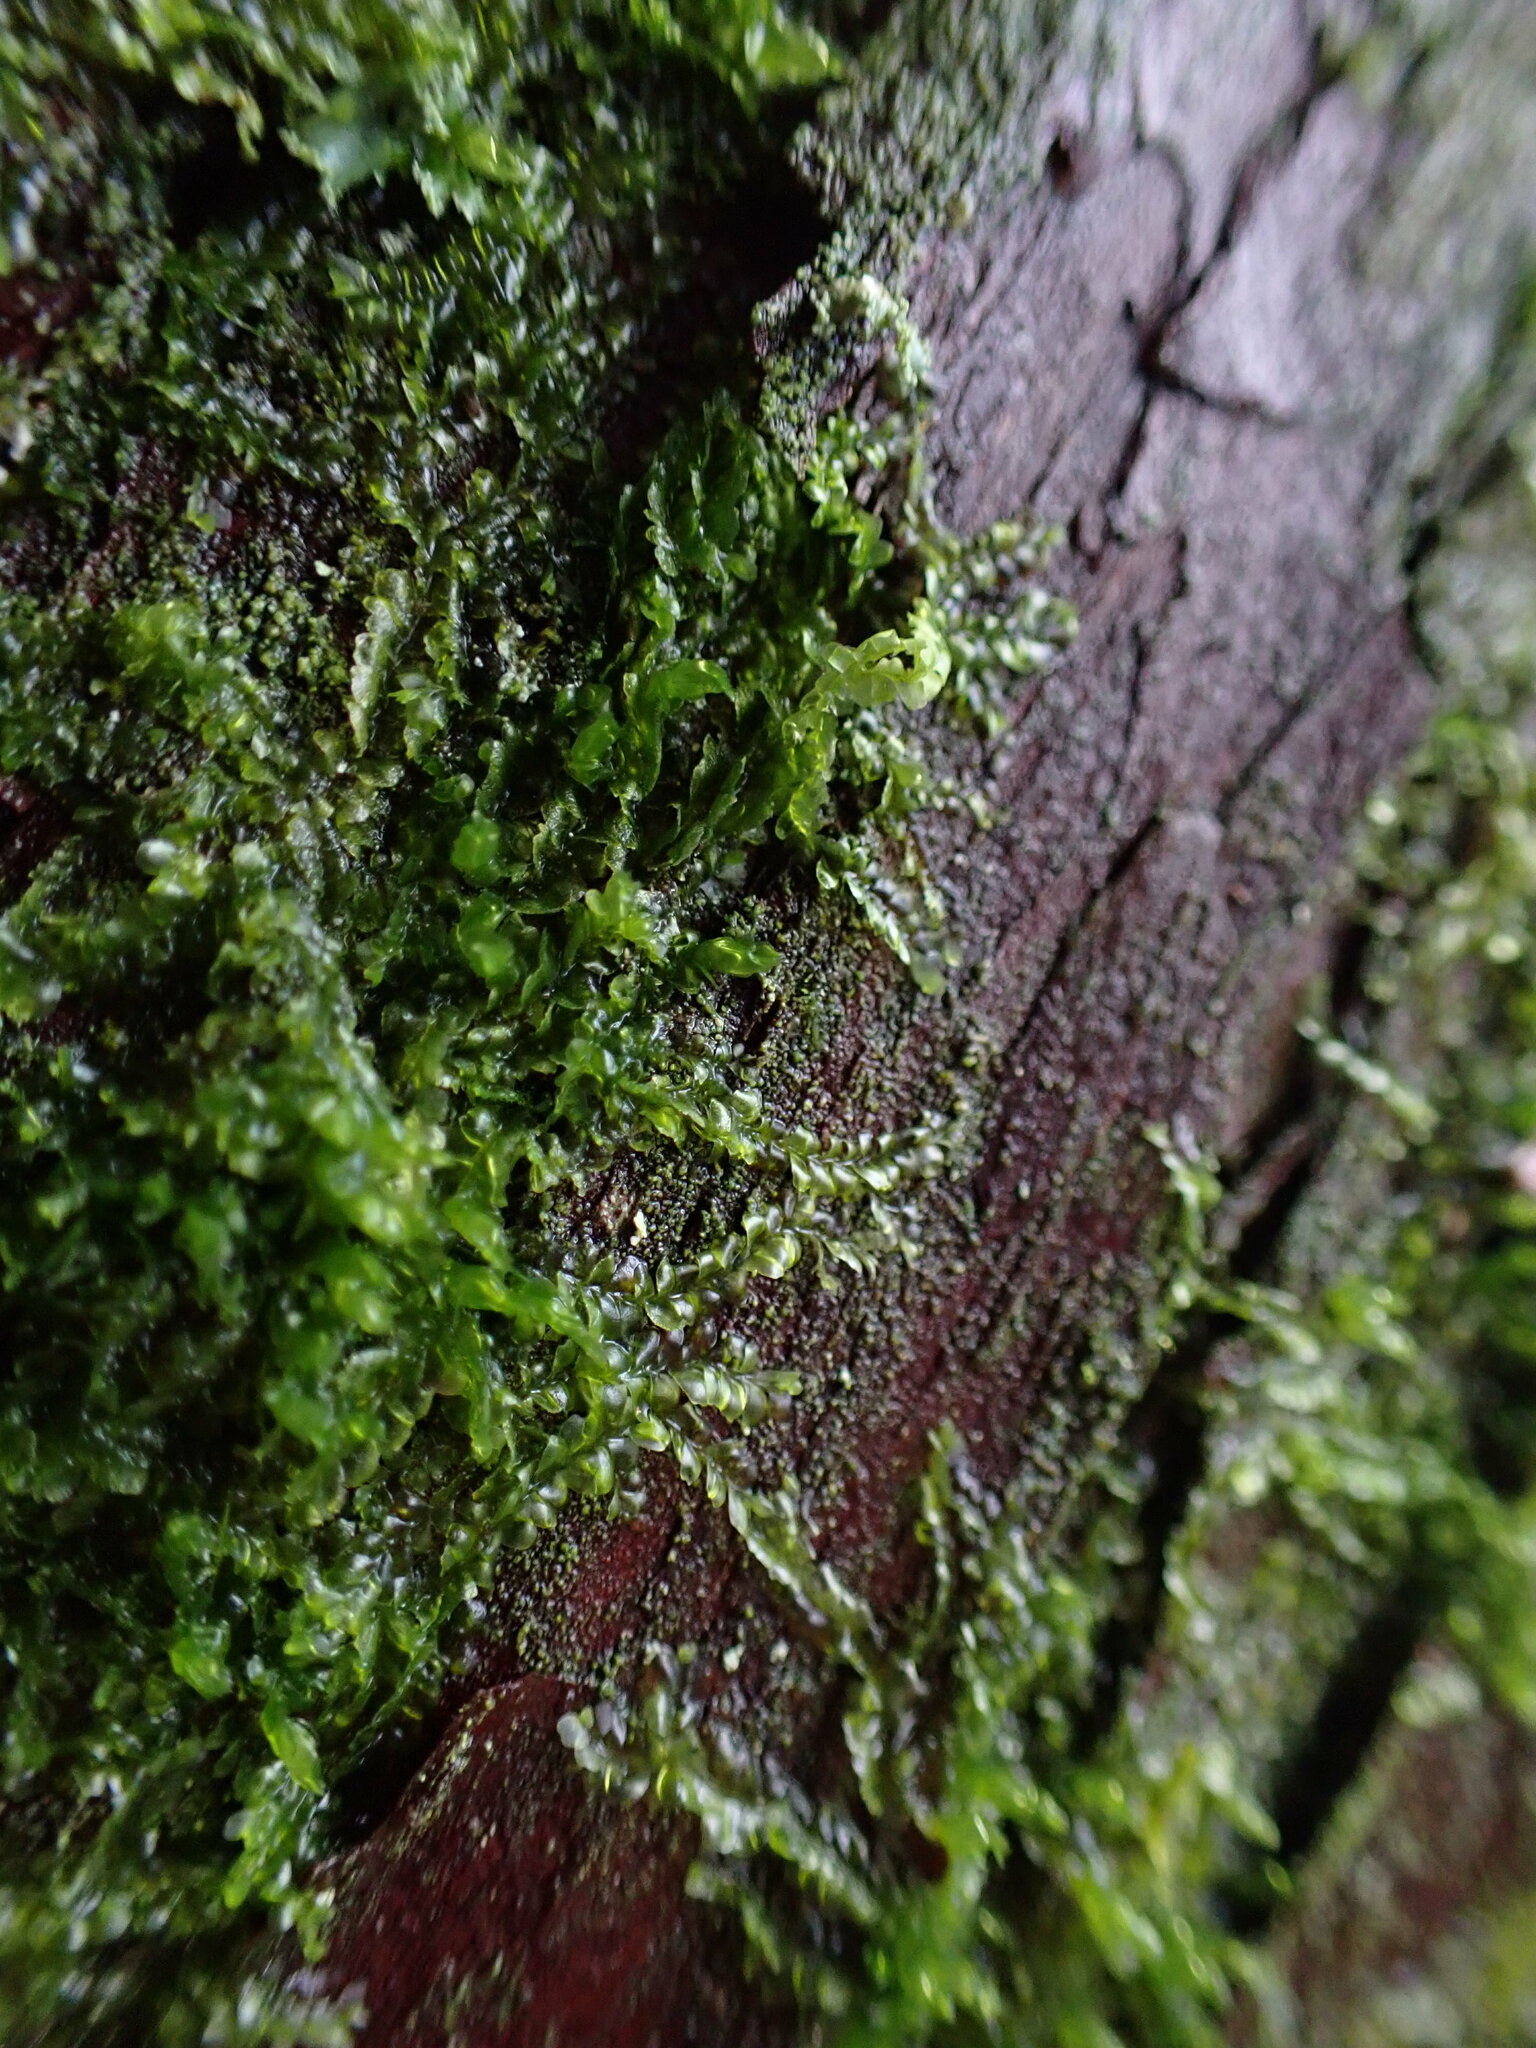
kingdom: Plantae
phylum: Marchantiophyta
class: Jungermanniopsida
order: Jungermanniales
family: Lophocoleaceae
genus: Lophocolea
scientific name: Lophocolea heterophylla
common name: Variable-leaved crestwort
